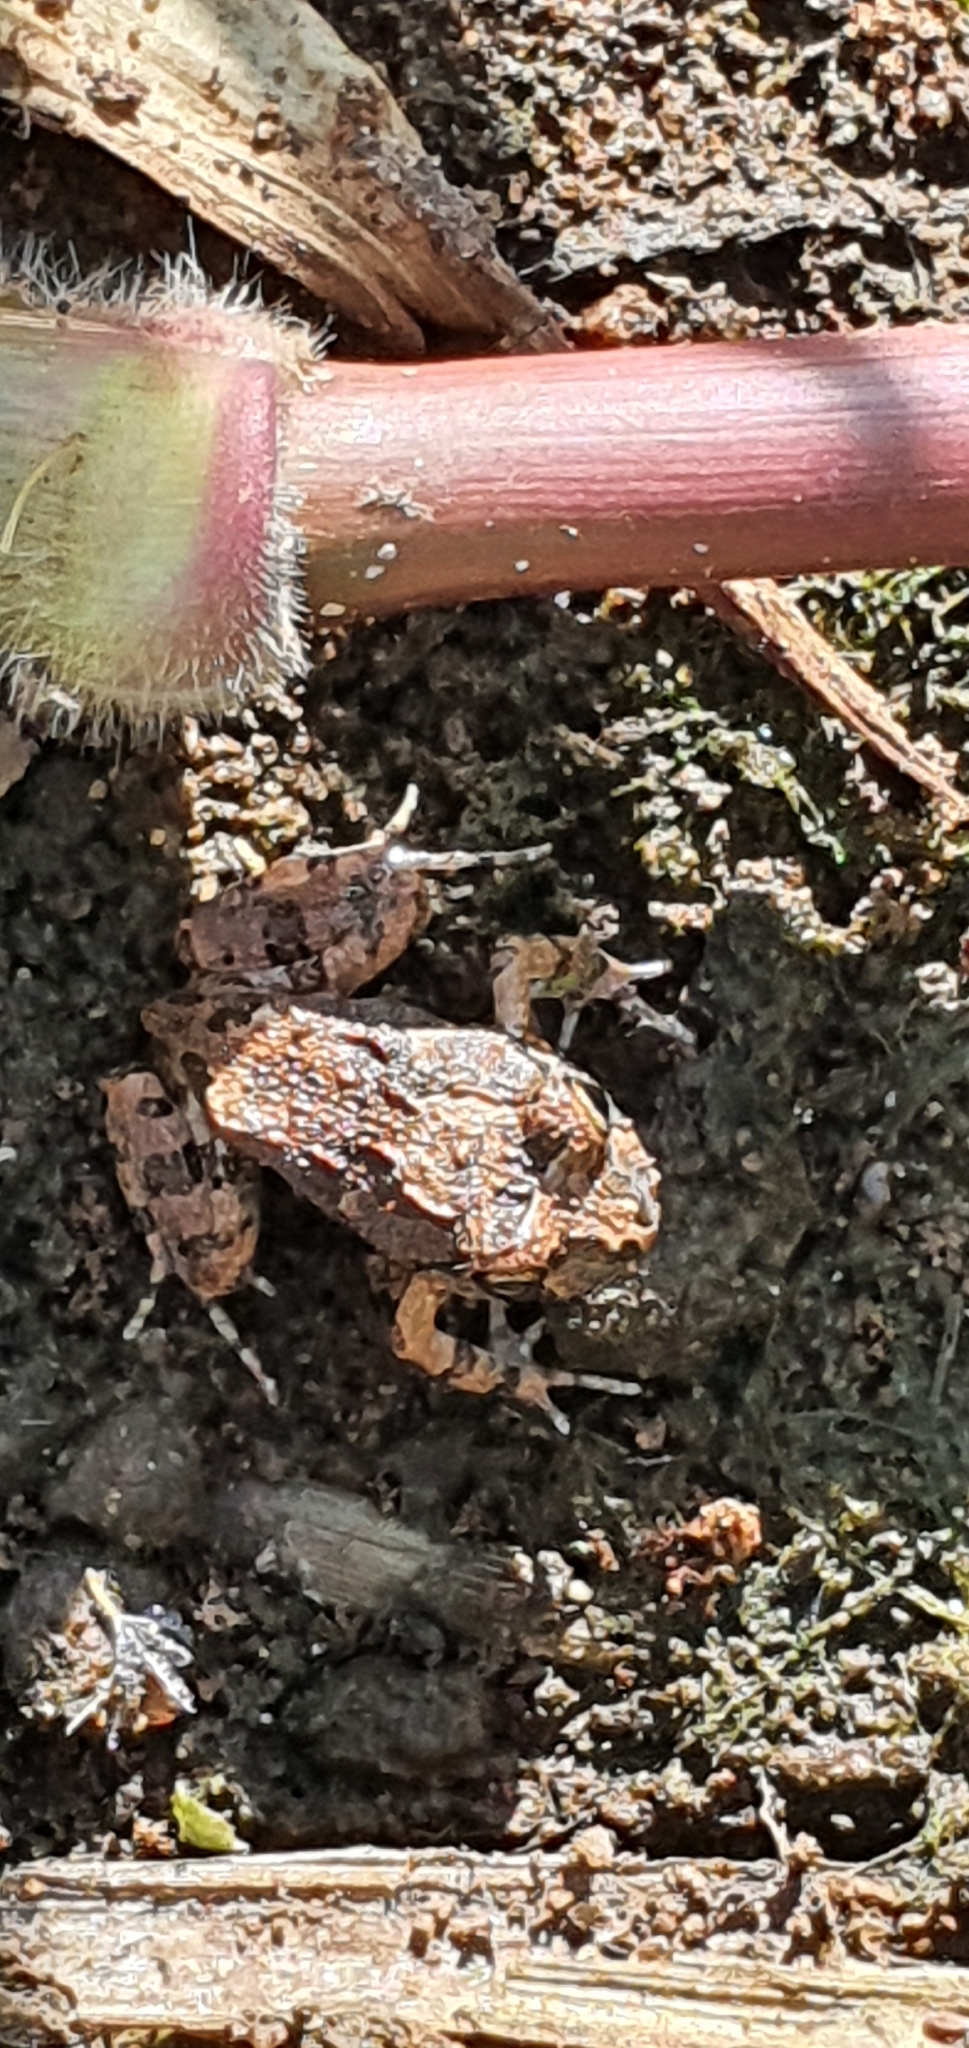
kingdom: Animalia
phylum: Chordata
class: Amphibia
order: Anura
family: Limnodynastidae
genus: Platyplectrum
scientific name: Platyplectrum ornatum
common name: Ornate burrowing frog
